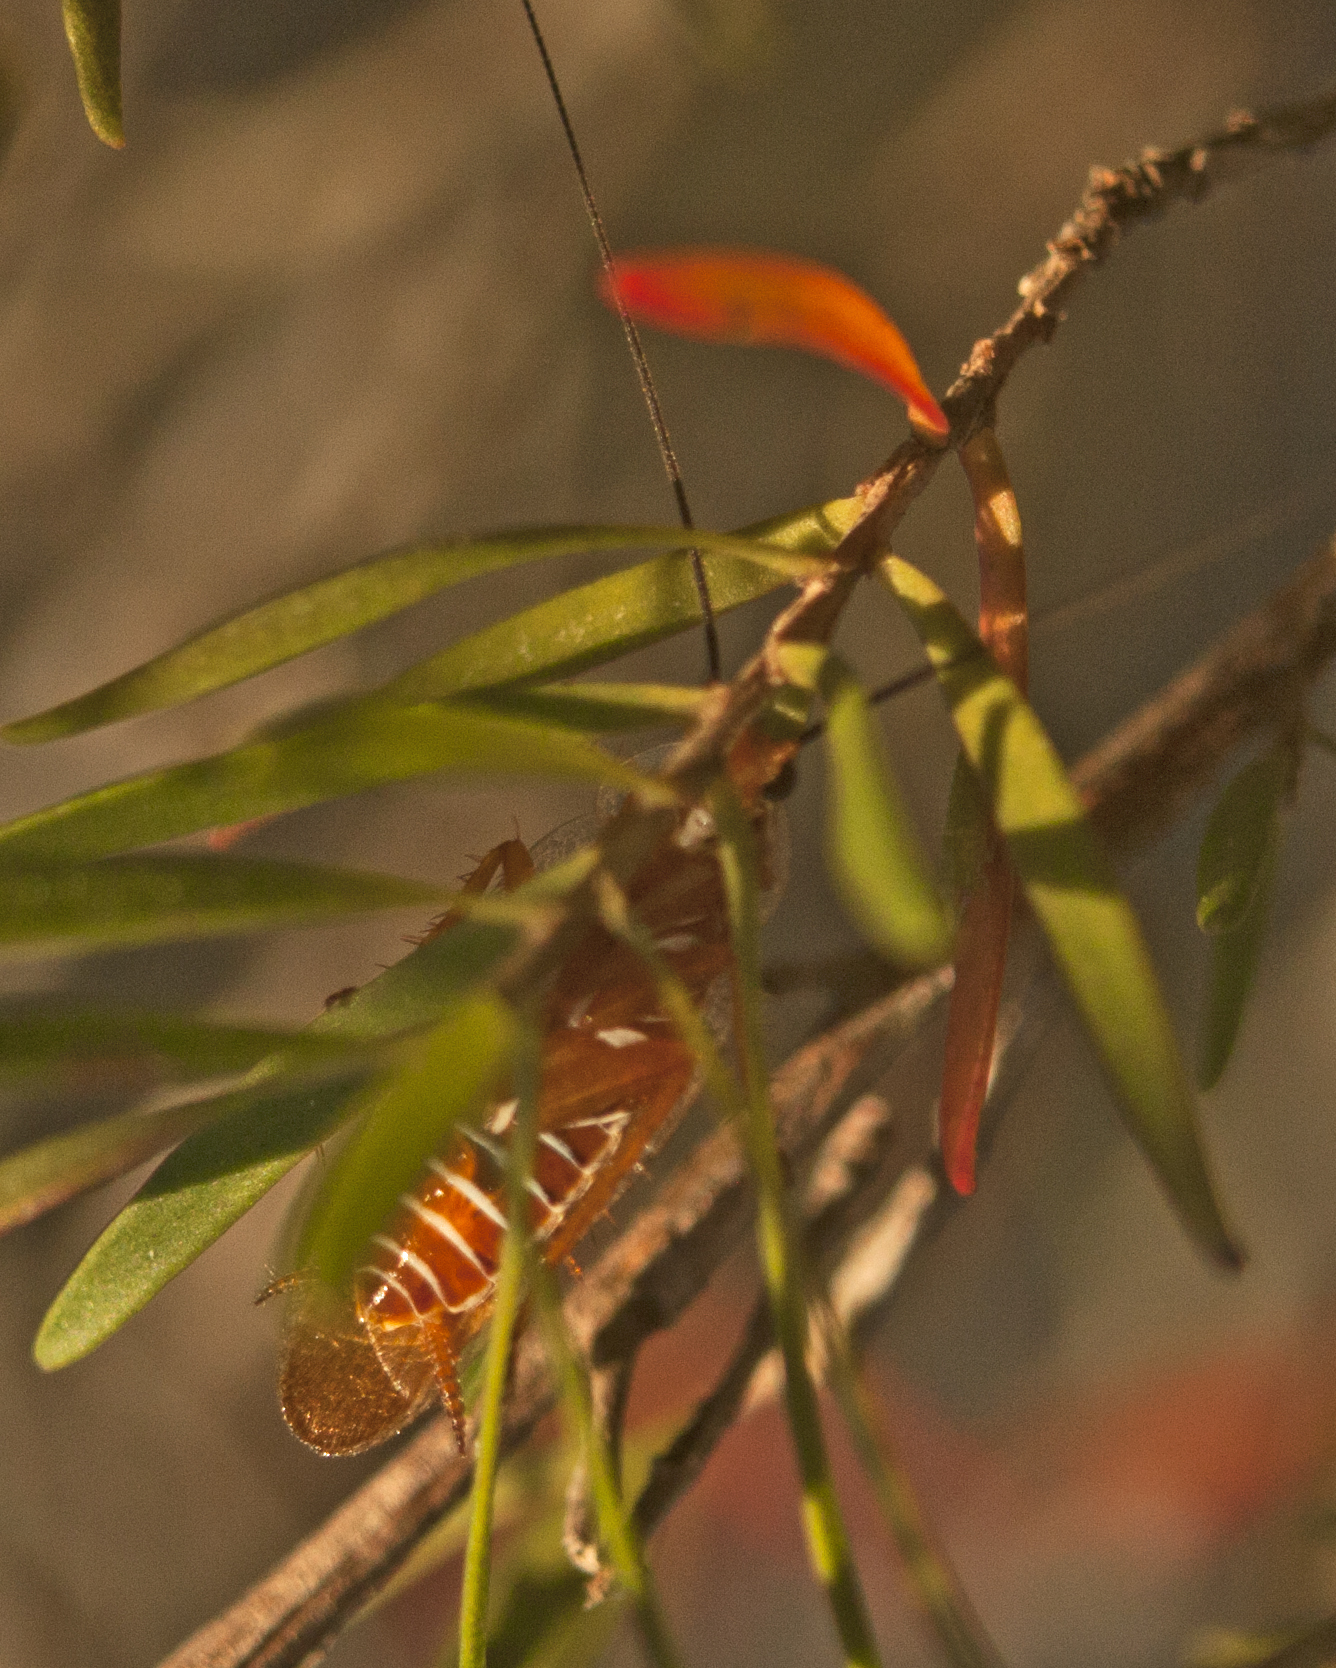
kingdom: Animalia
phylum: Arthropoda
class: Insecta
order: Blattodea
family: Ectobiidae
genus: Balta
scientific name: Balta yorkensis
